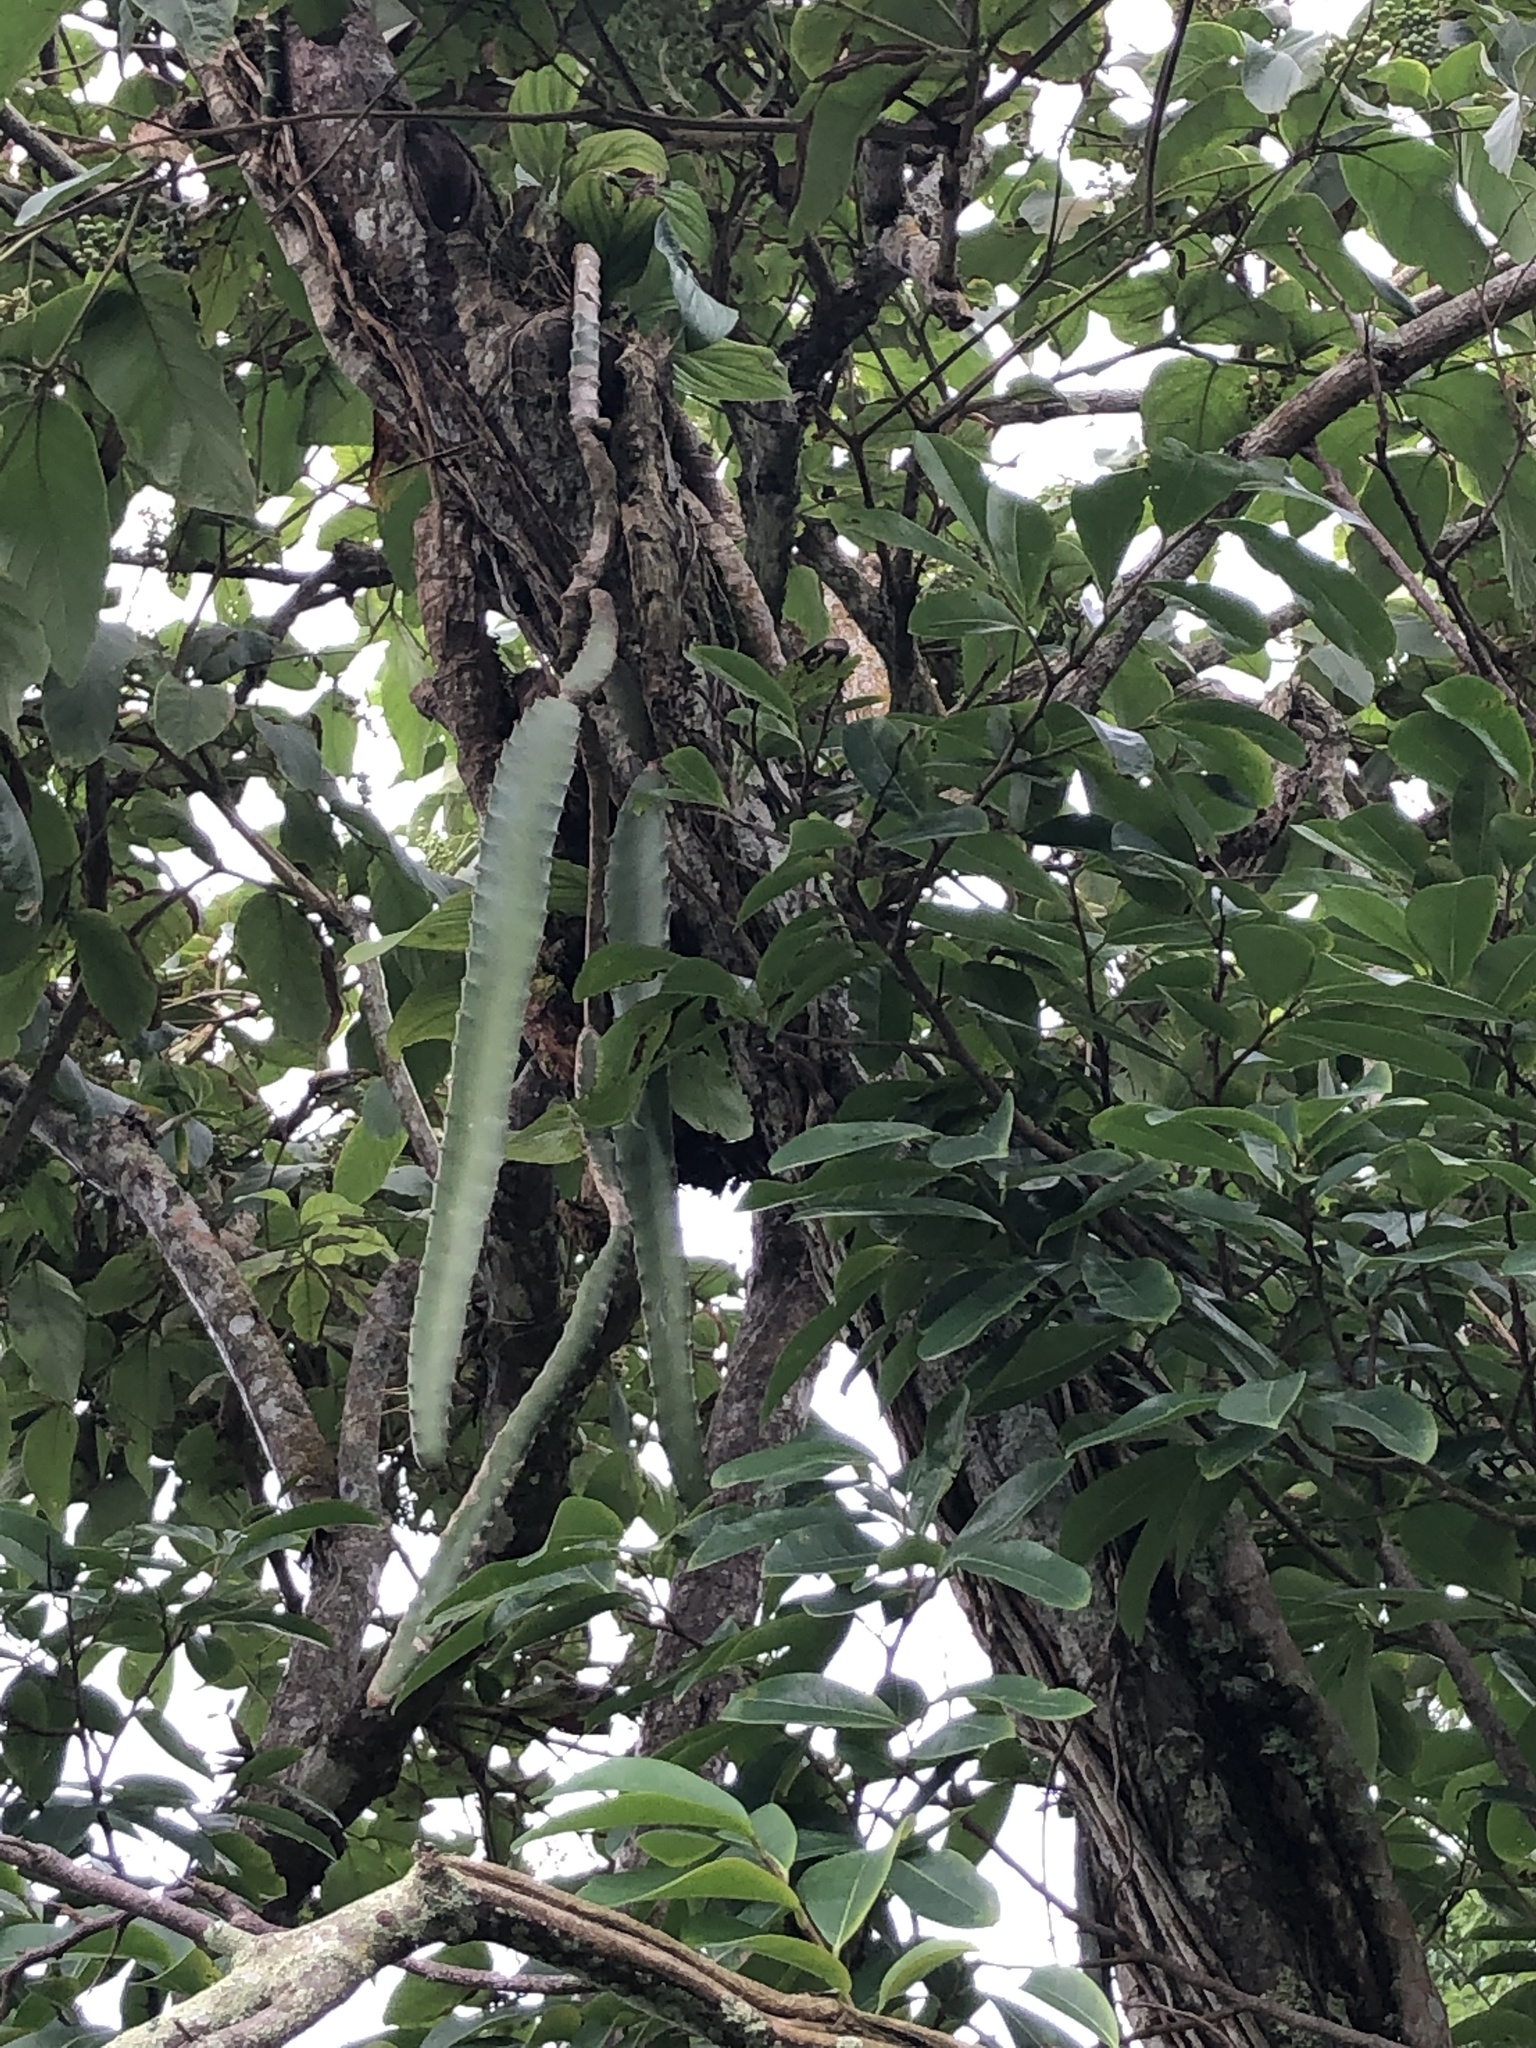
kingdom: Plantae
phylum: Tracheophyta
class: Magnoliopsida
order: Caryophyllales
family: Cactaceae
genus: Selenicereus
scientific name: Selenicereus monacanthus
